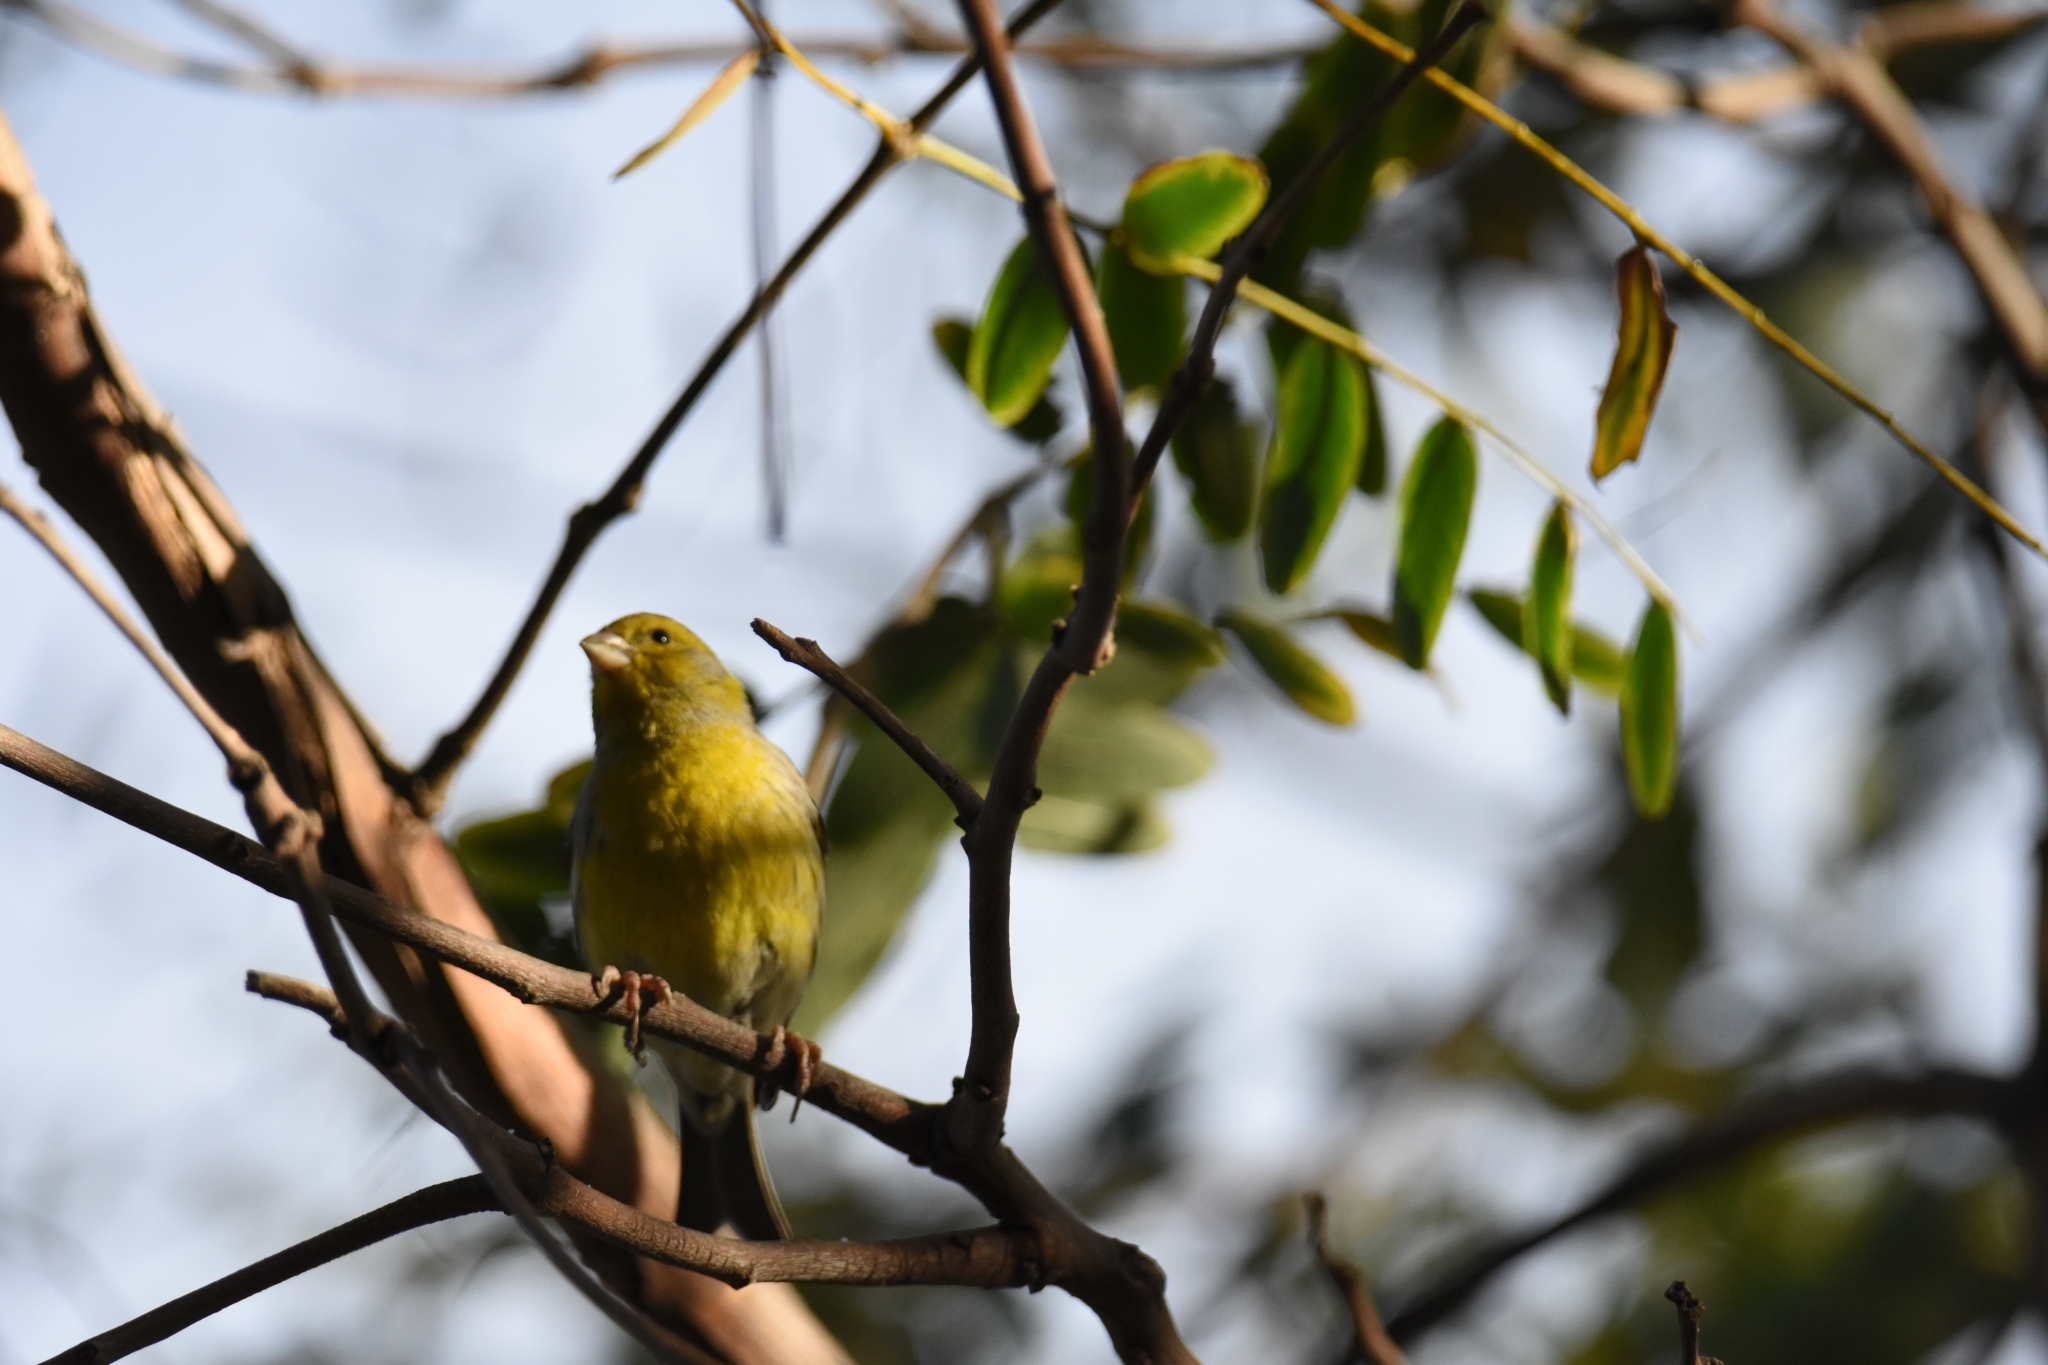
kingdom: Animalia
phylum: Chordata
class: Aves
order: Passeriformes
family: Fringillidae
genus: Serinus
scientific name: Serinus canaria
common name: Atlantic canary
